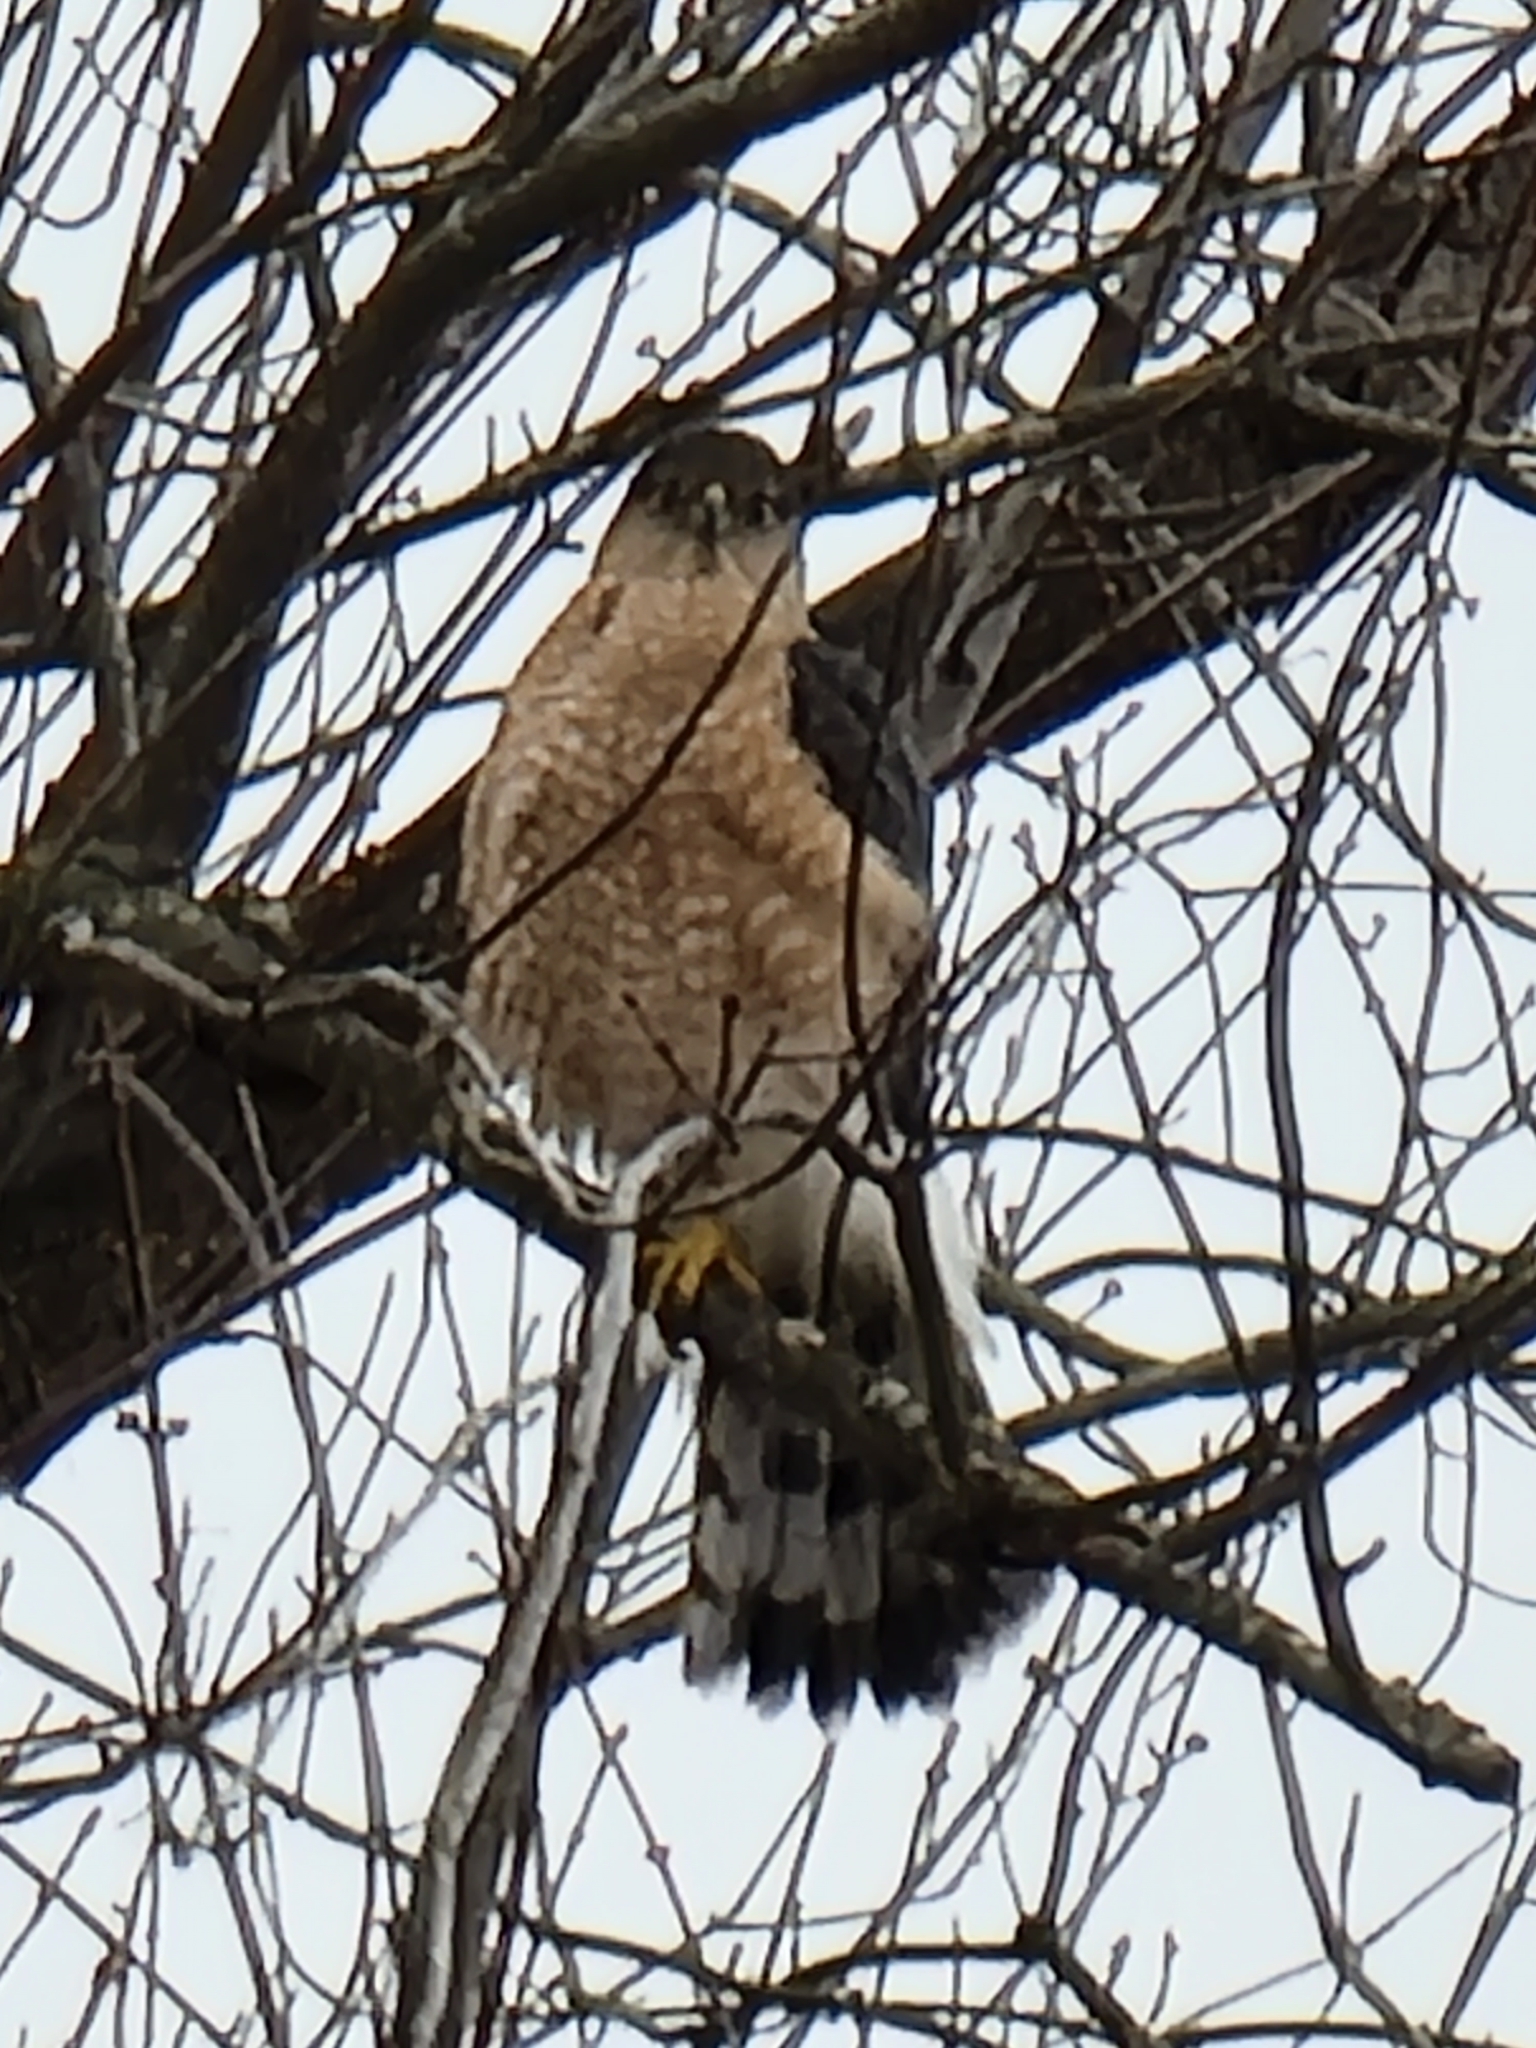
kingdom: Animalia
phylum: Chordata
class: Aves
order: Accipitriformes
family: Accipitridae
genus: Accipiter
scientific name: Accipiter cooperii
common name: Cooper's hawk
